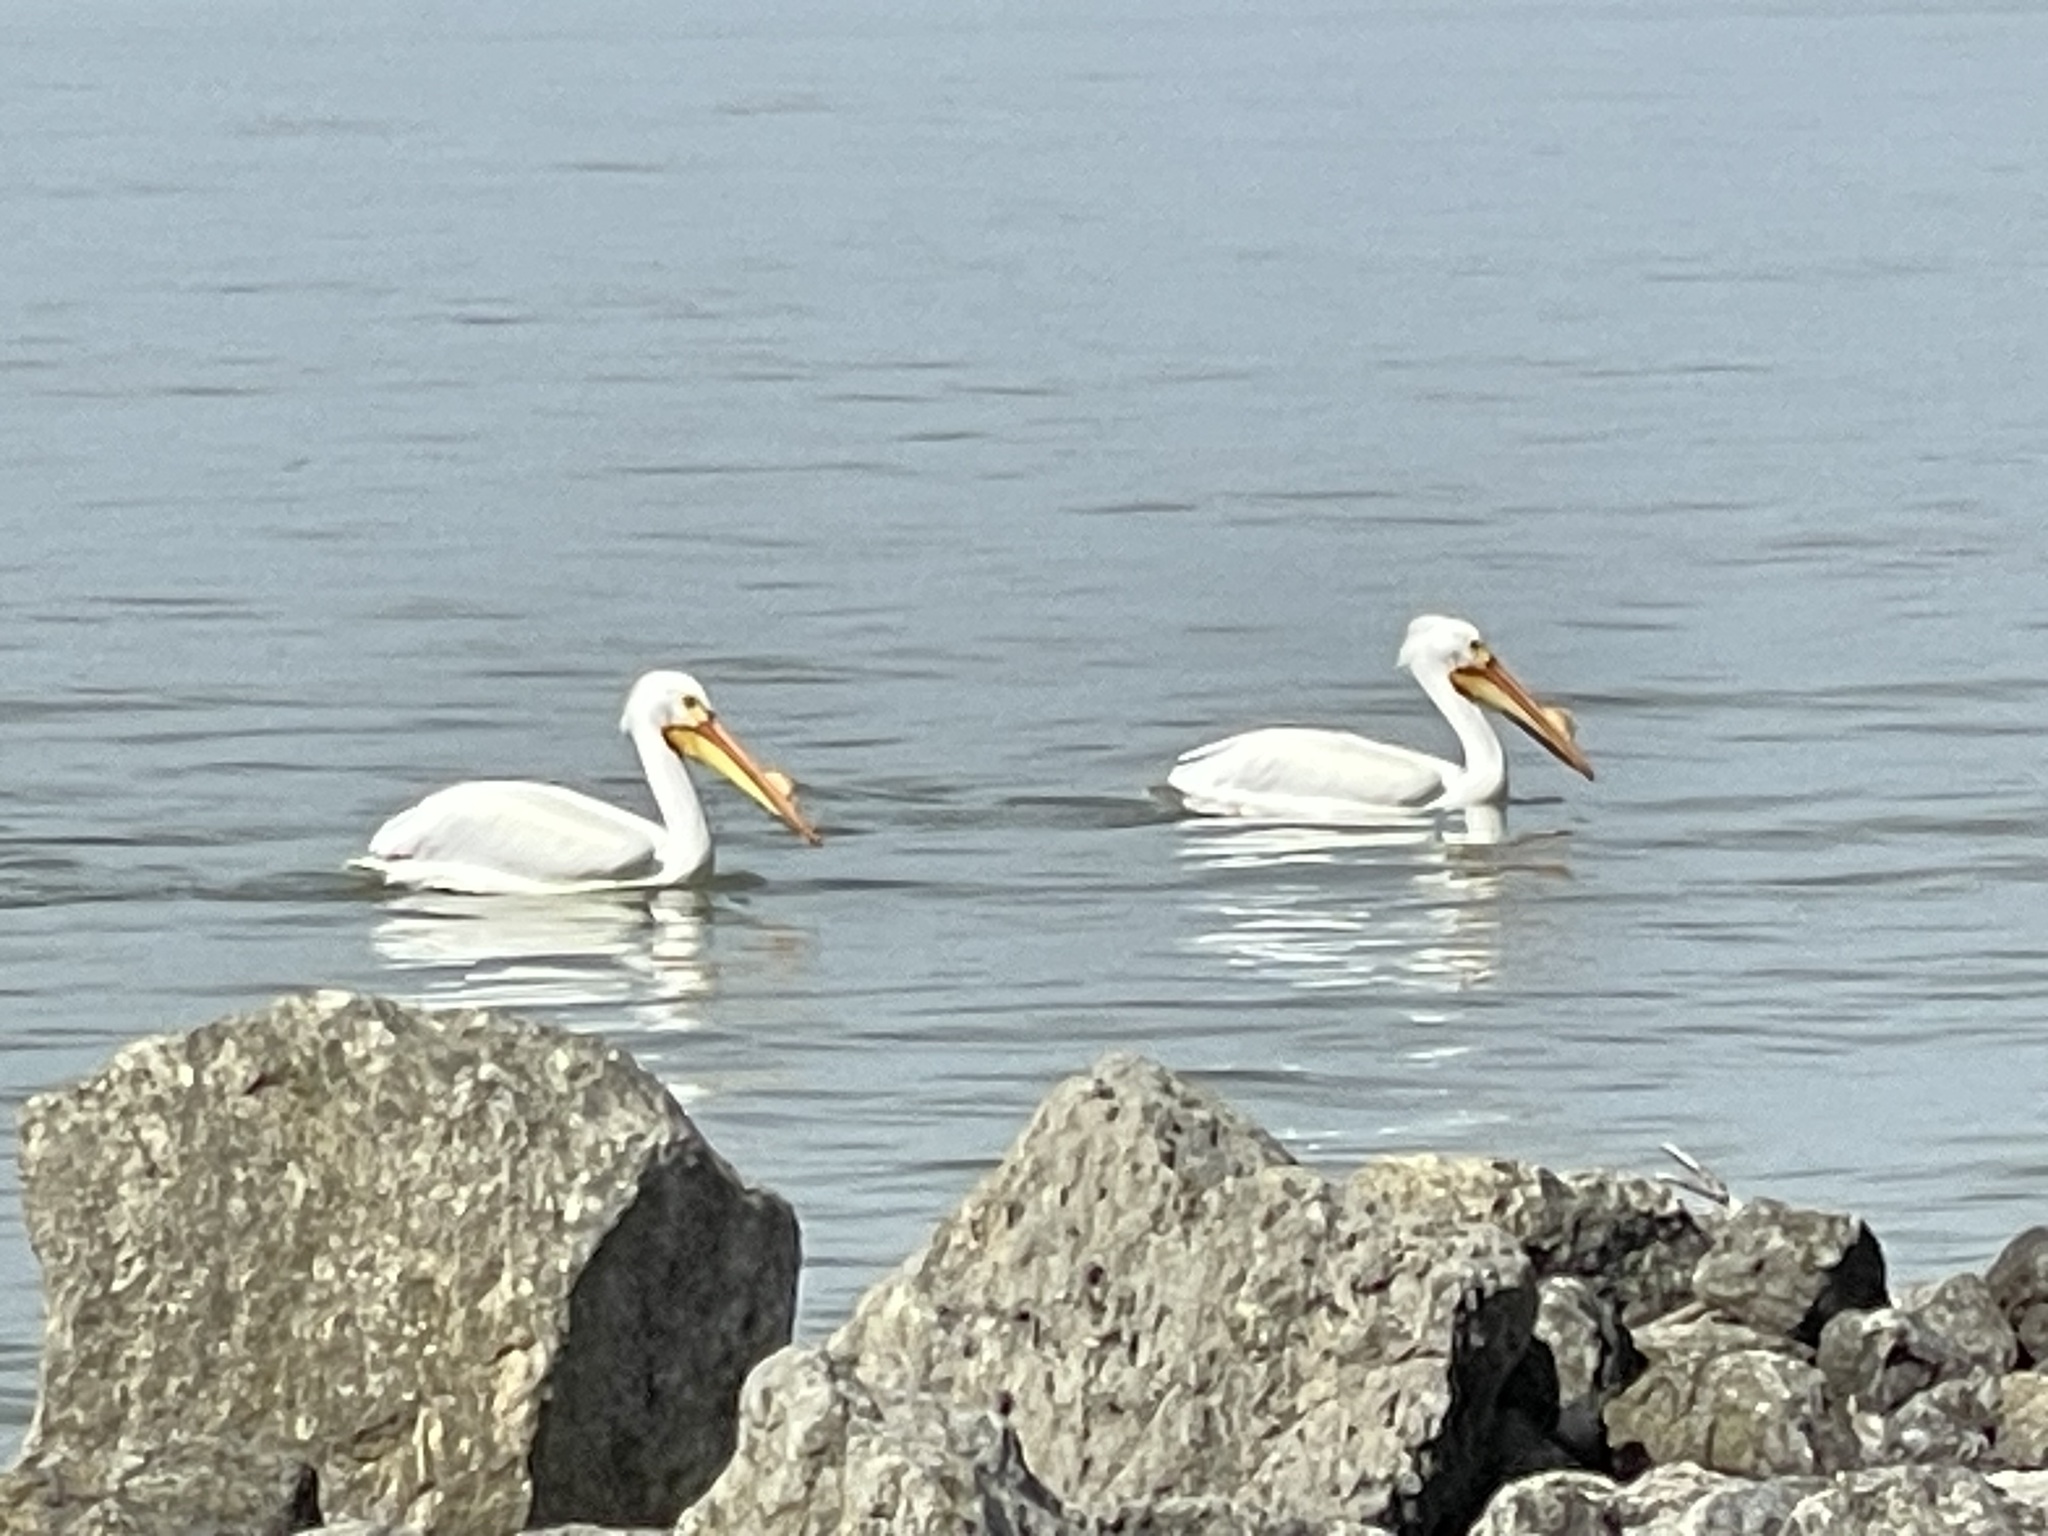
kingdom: Animalia
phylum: Chordata
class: Aves
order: Pelecaniformes
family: Pelecanidae
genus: Pelecanus
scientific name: Pelecanus erythrorhynchos
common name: American white pelican
